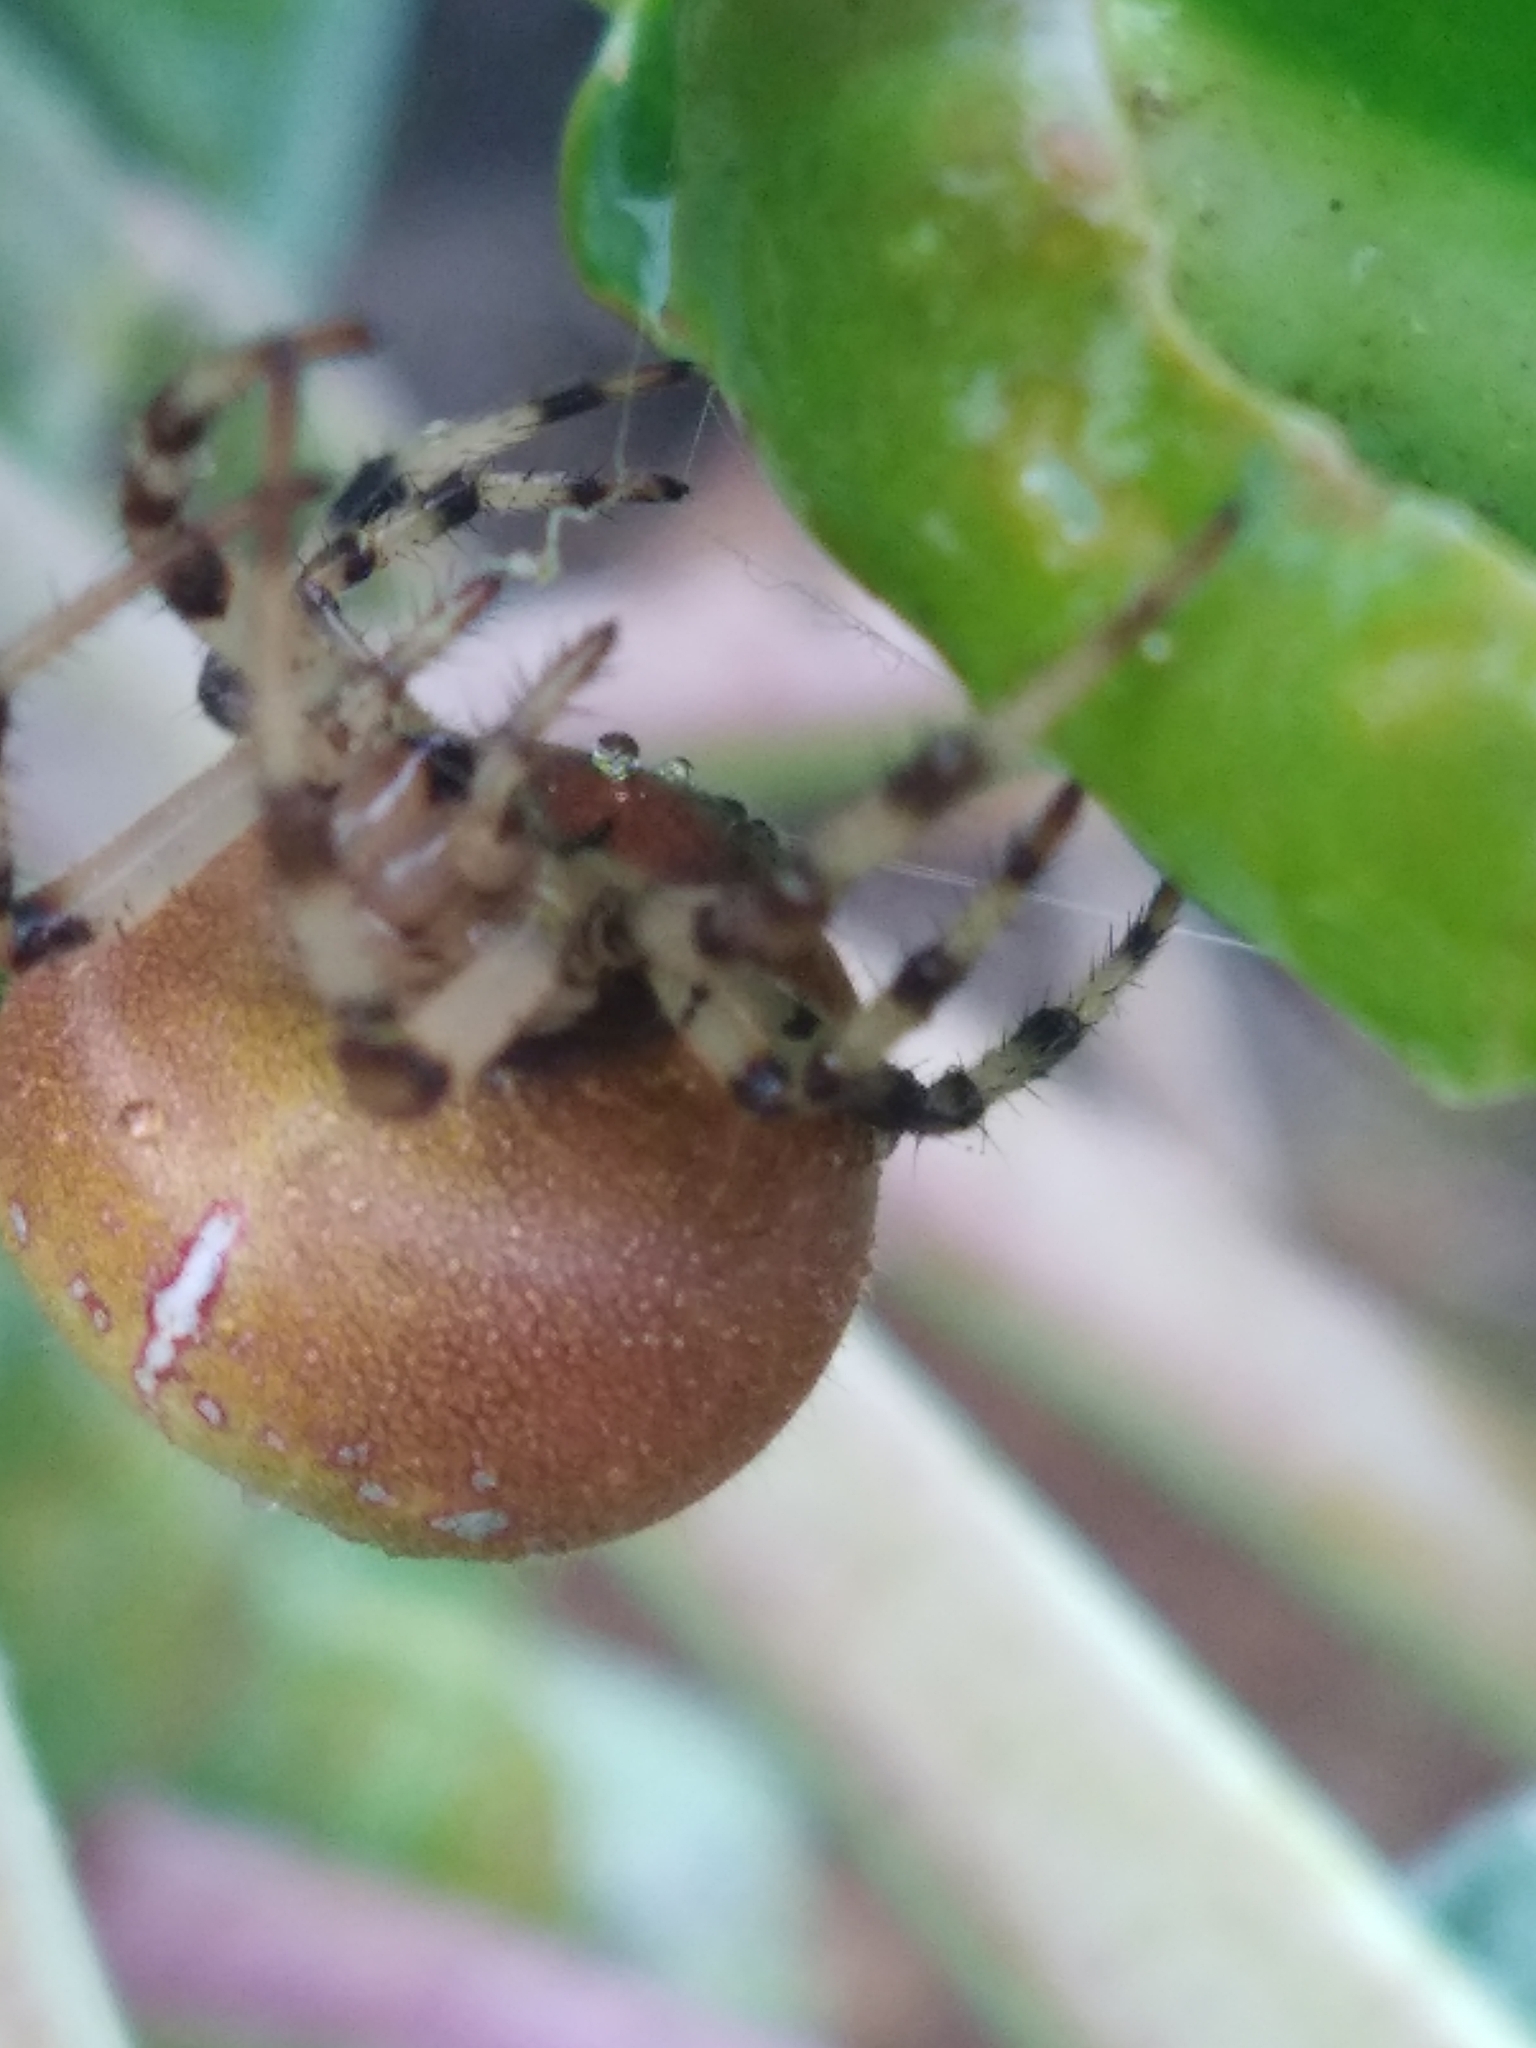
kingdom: Animalia
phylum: Arthropoda
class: Arachnida
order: Araneae
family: Araneidae
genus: Araneus
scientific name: Araneus quadratus
